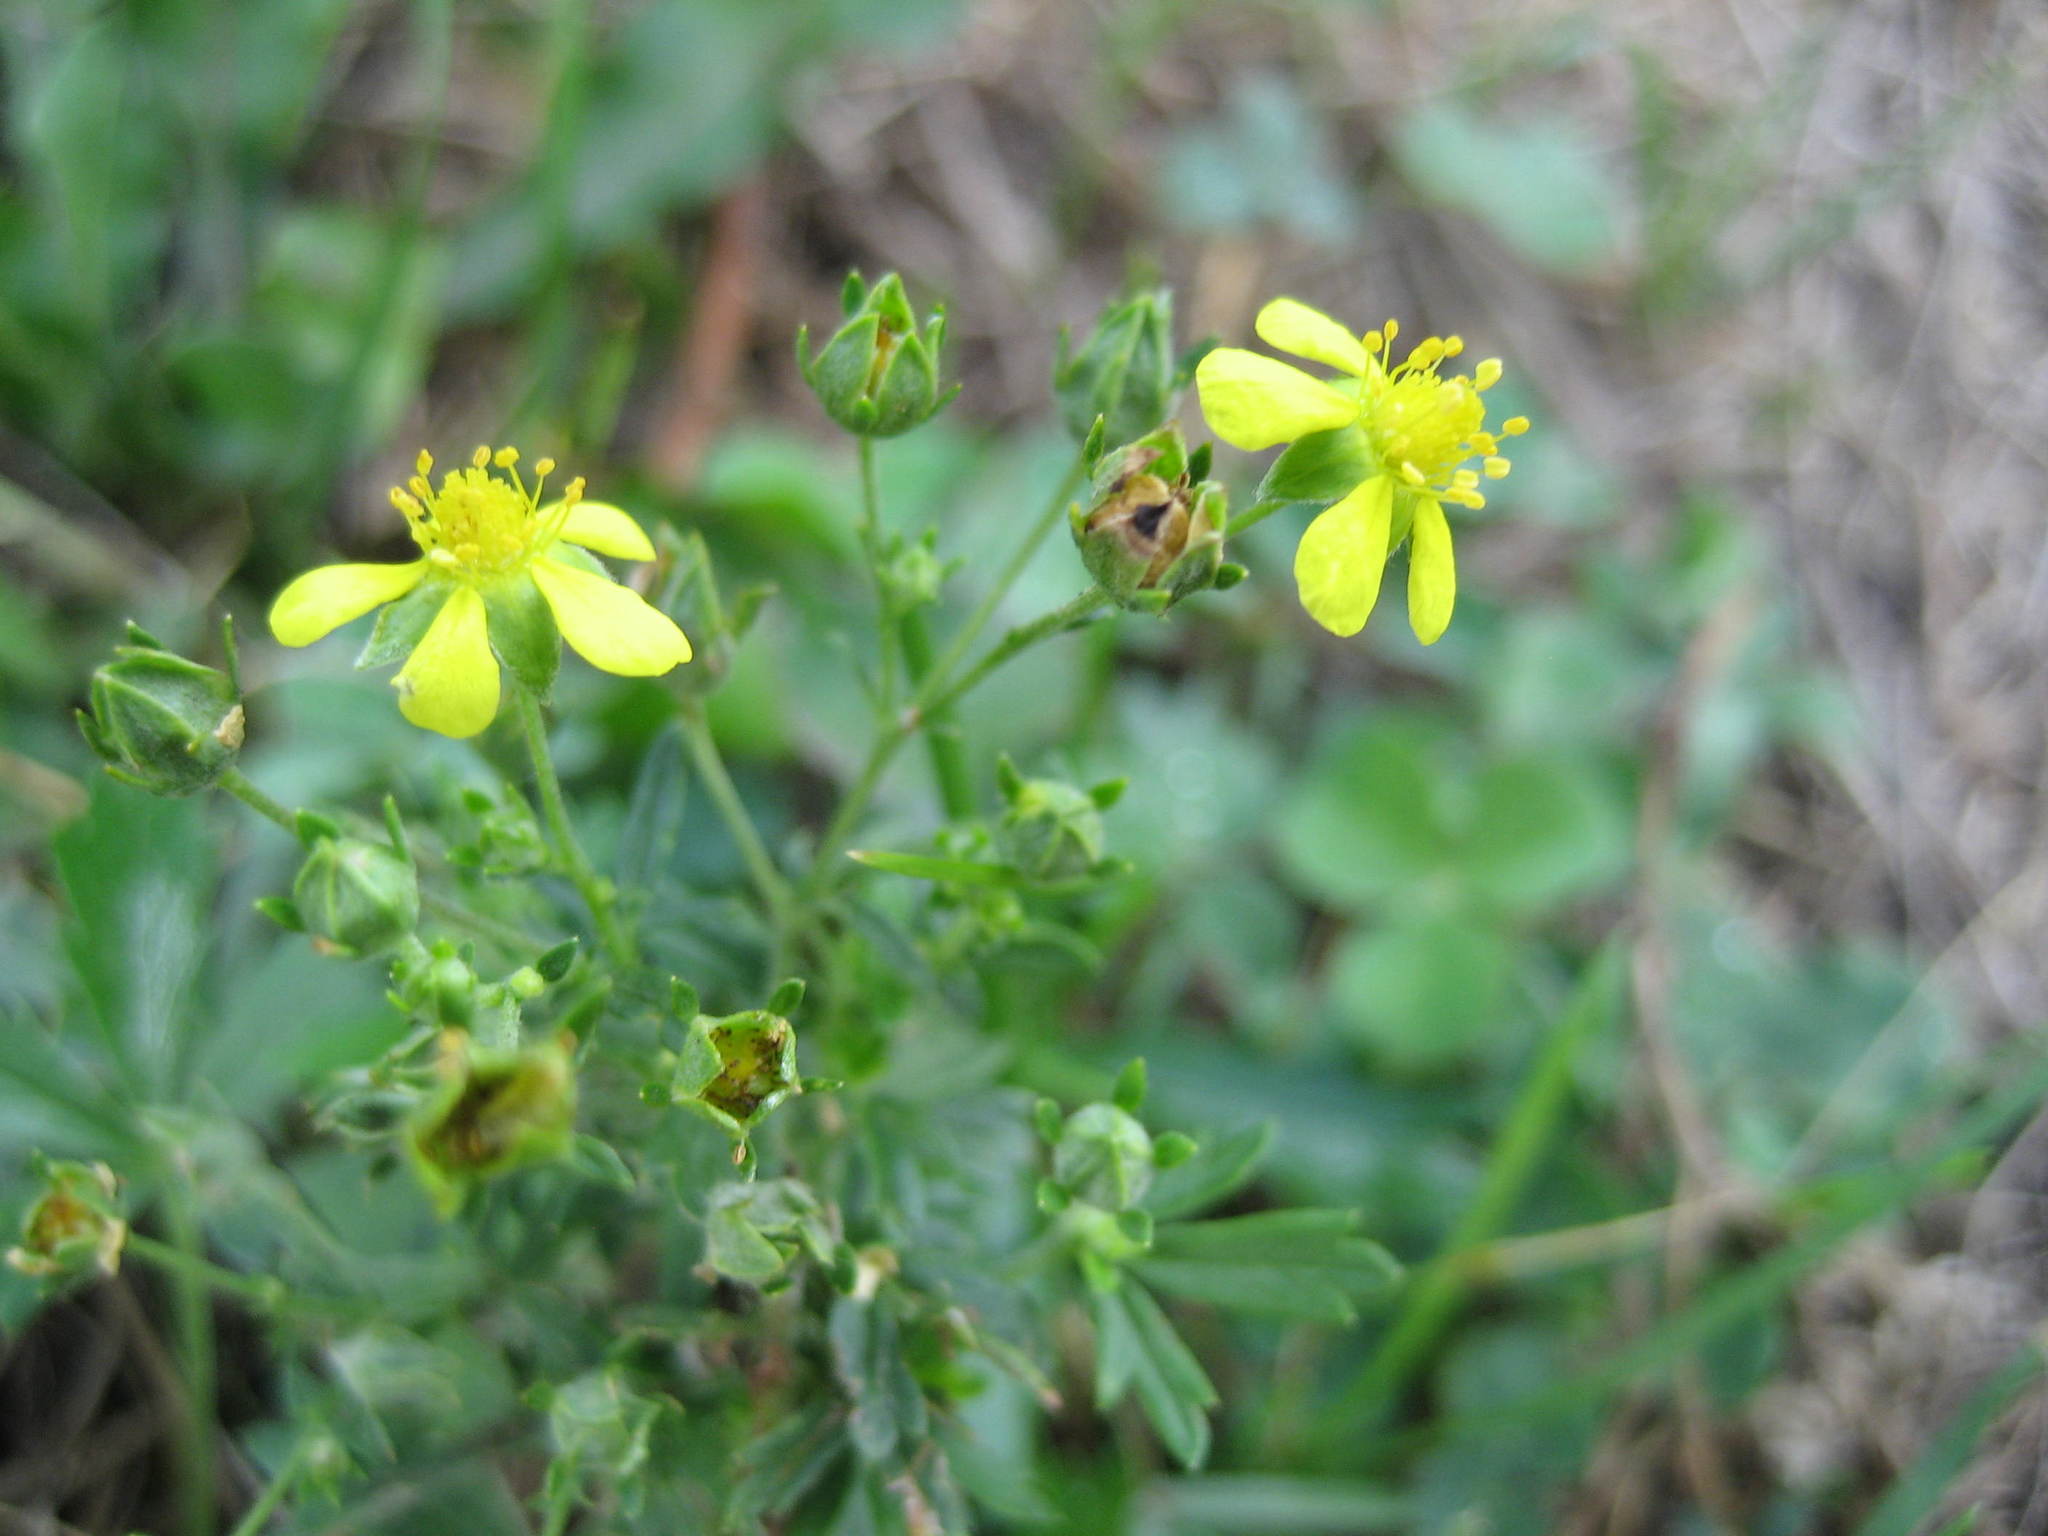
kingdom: Plantae
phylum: Tracheophyta
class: Magnoliopsida
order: Rosales
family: Rosaceae
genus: Potentilla
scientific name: Potentilla argentea
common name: Hoary cinquefoil
